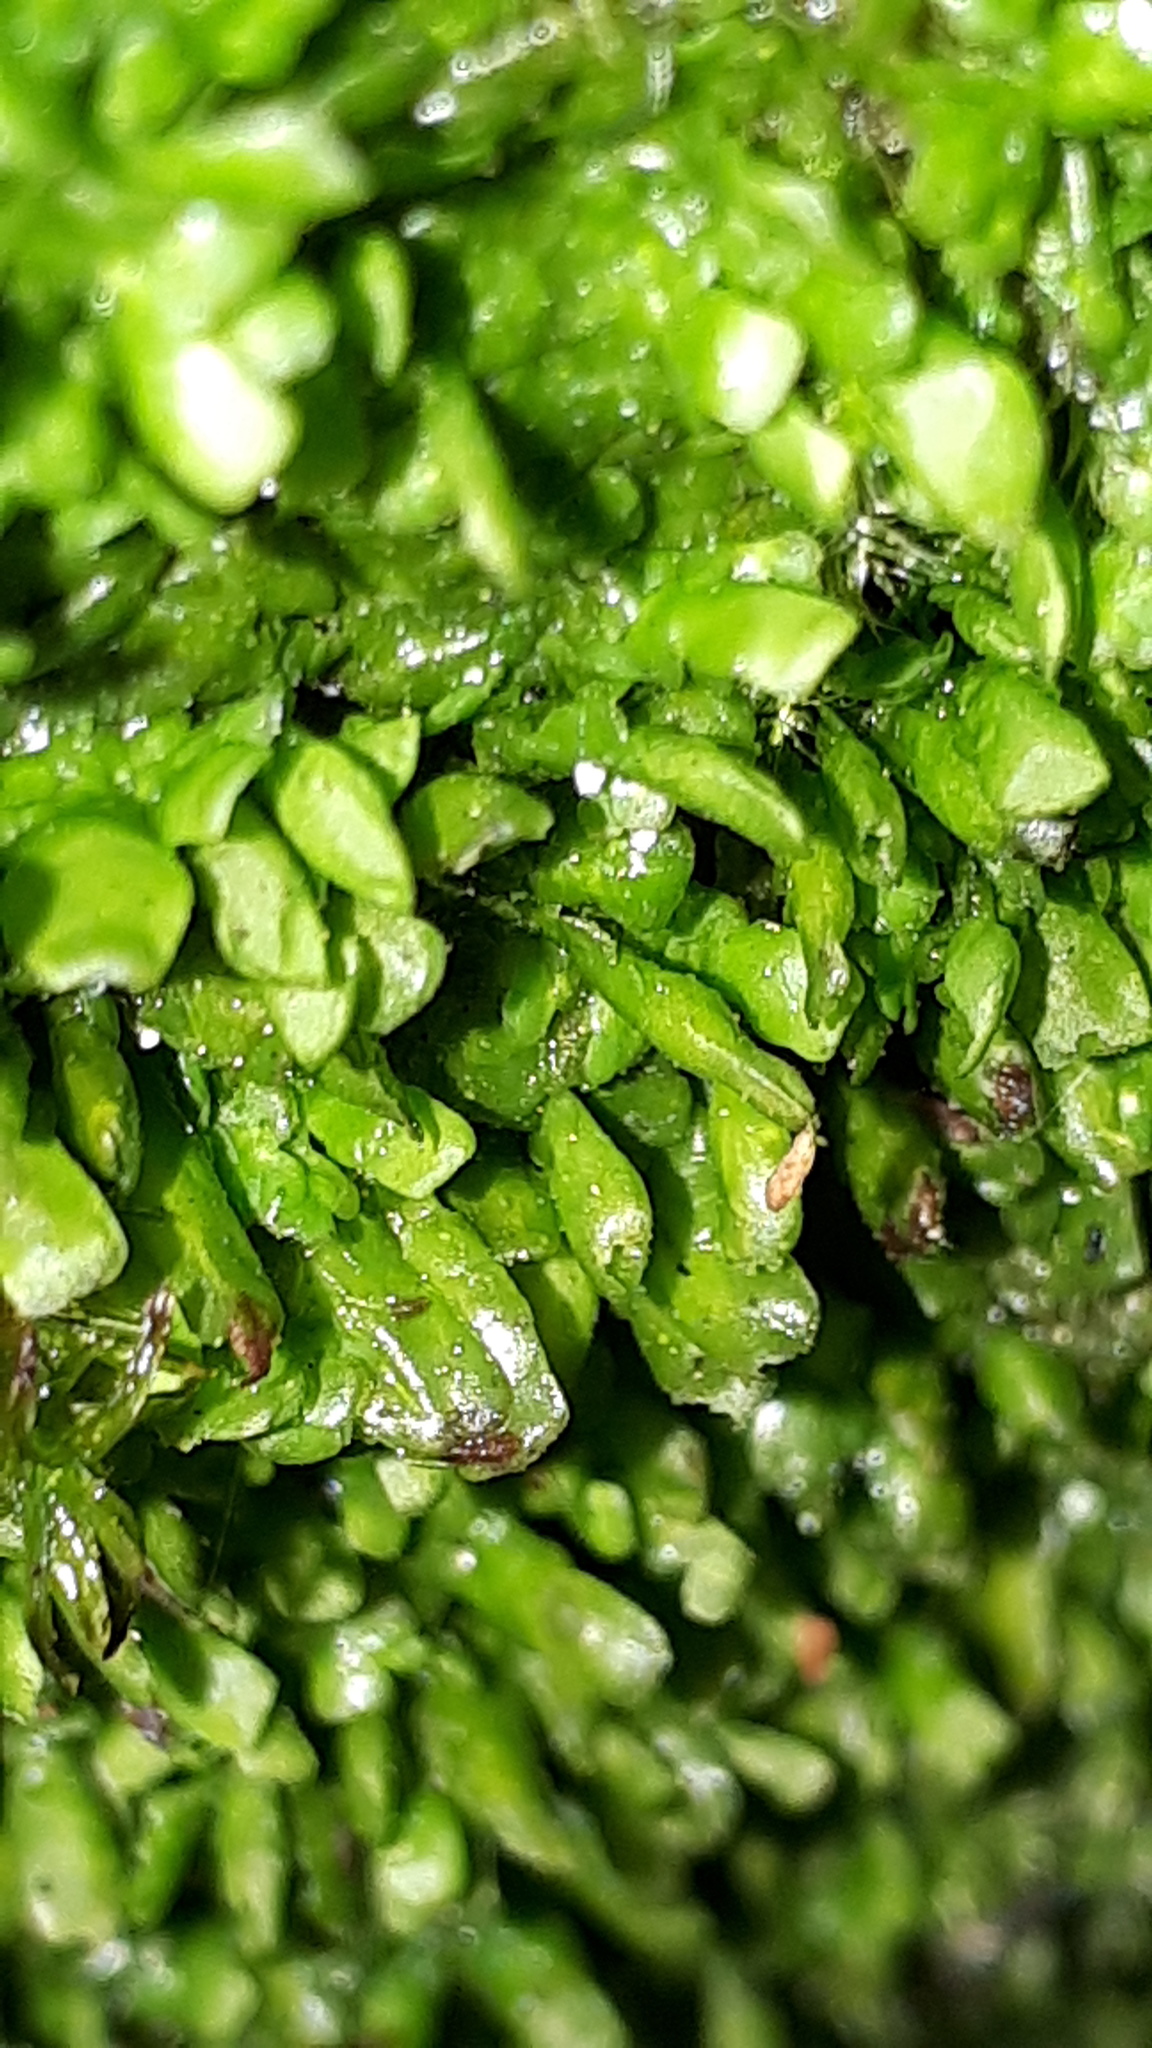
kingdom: Plantae
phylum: Marchantiophyta
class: Jungermanniopsida
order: Porellales
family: Radulaceae
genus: Radula
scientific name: Radula complanata
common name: Flat-leaved scalewort
